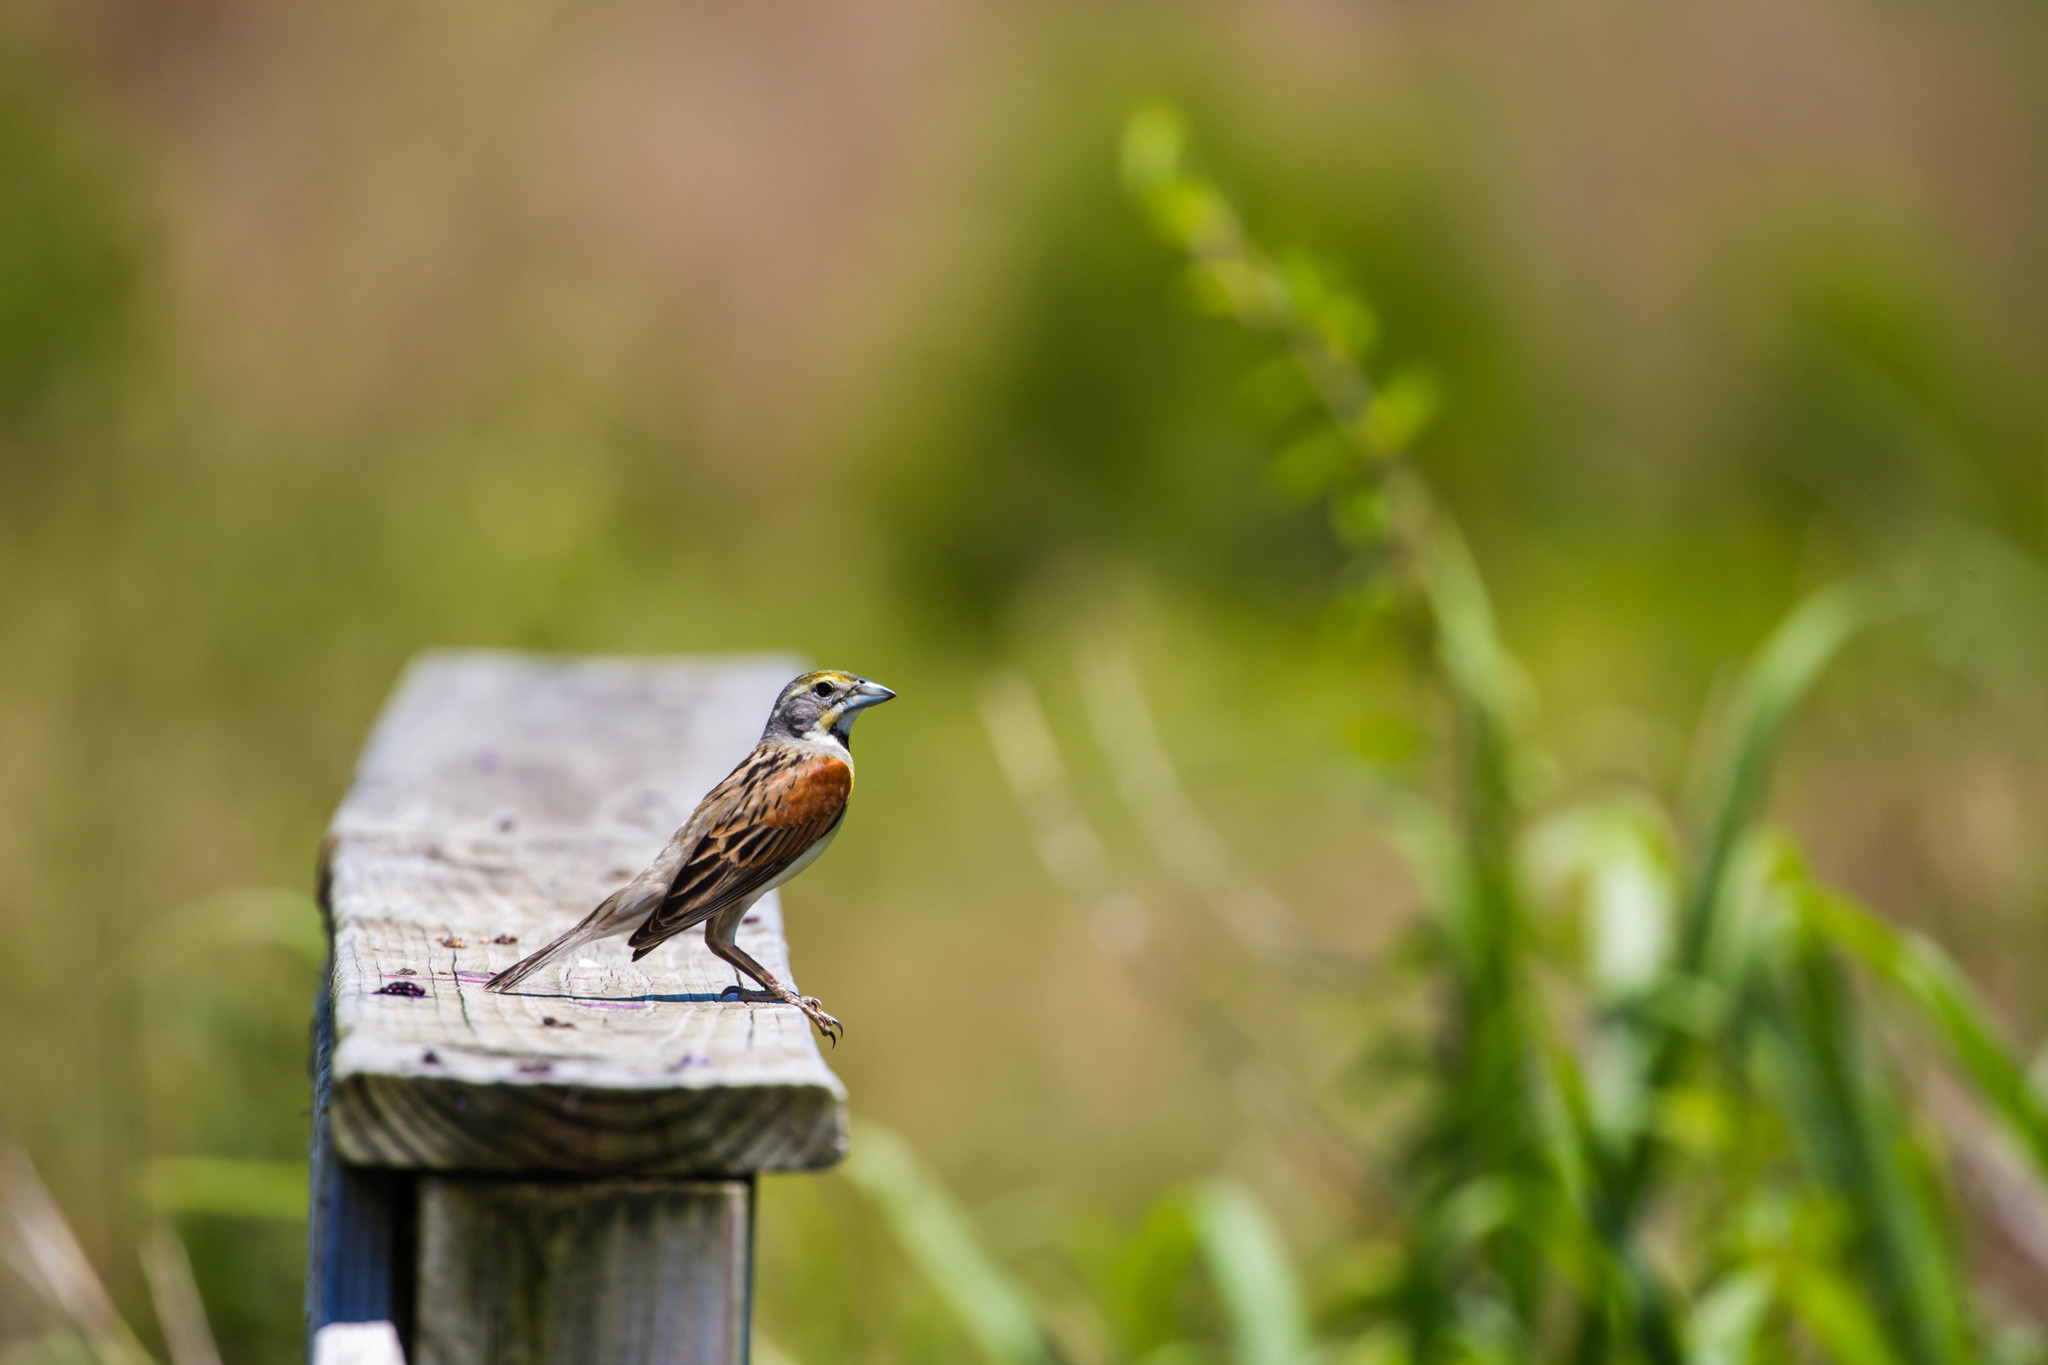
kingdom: Animalia
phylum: Chordata
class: Aves
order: Passeriformes
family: Cardinalidae
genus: Spiza
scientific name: Spiza americana
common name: Dickcissel
